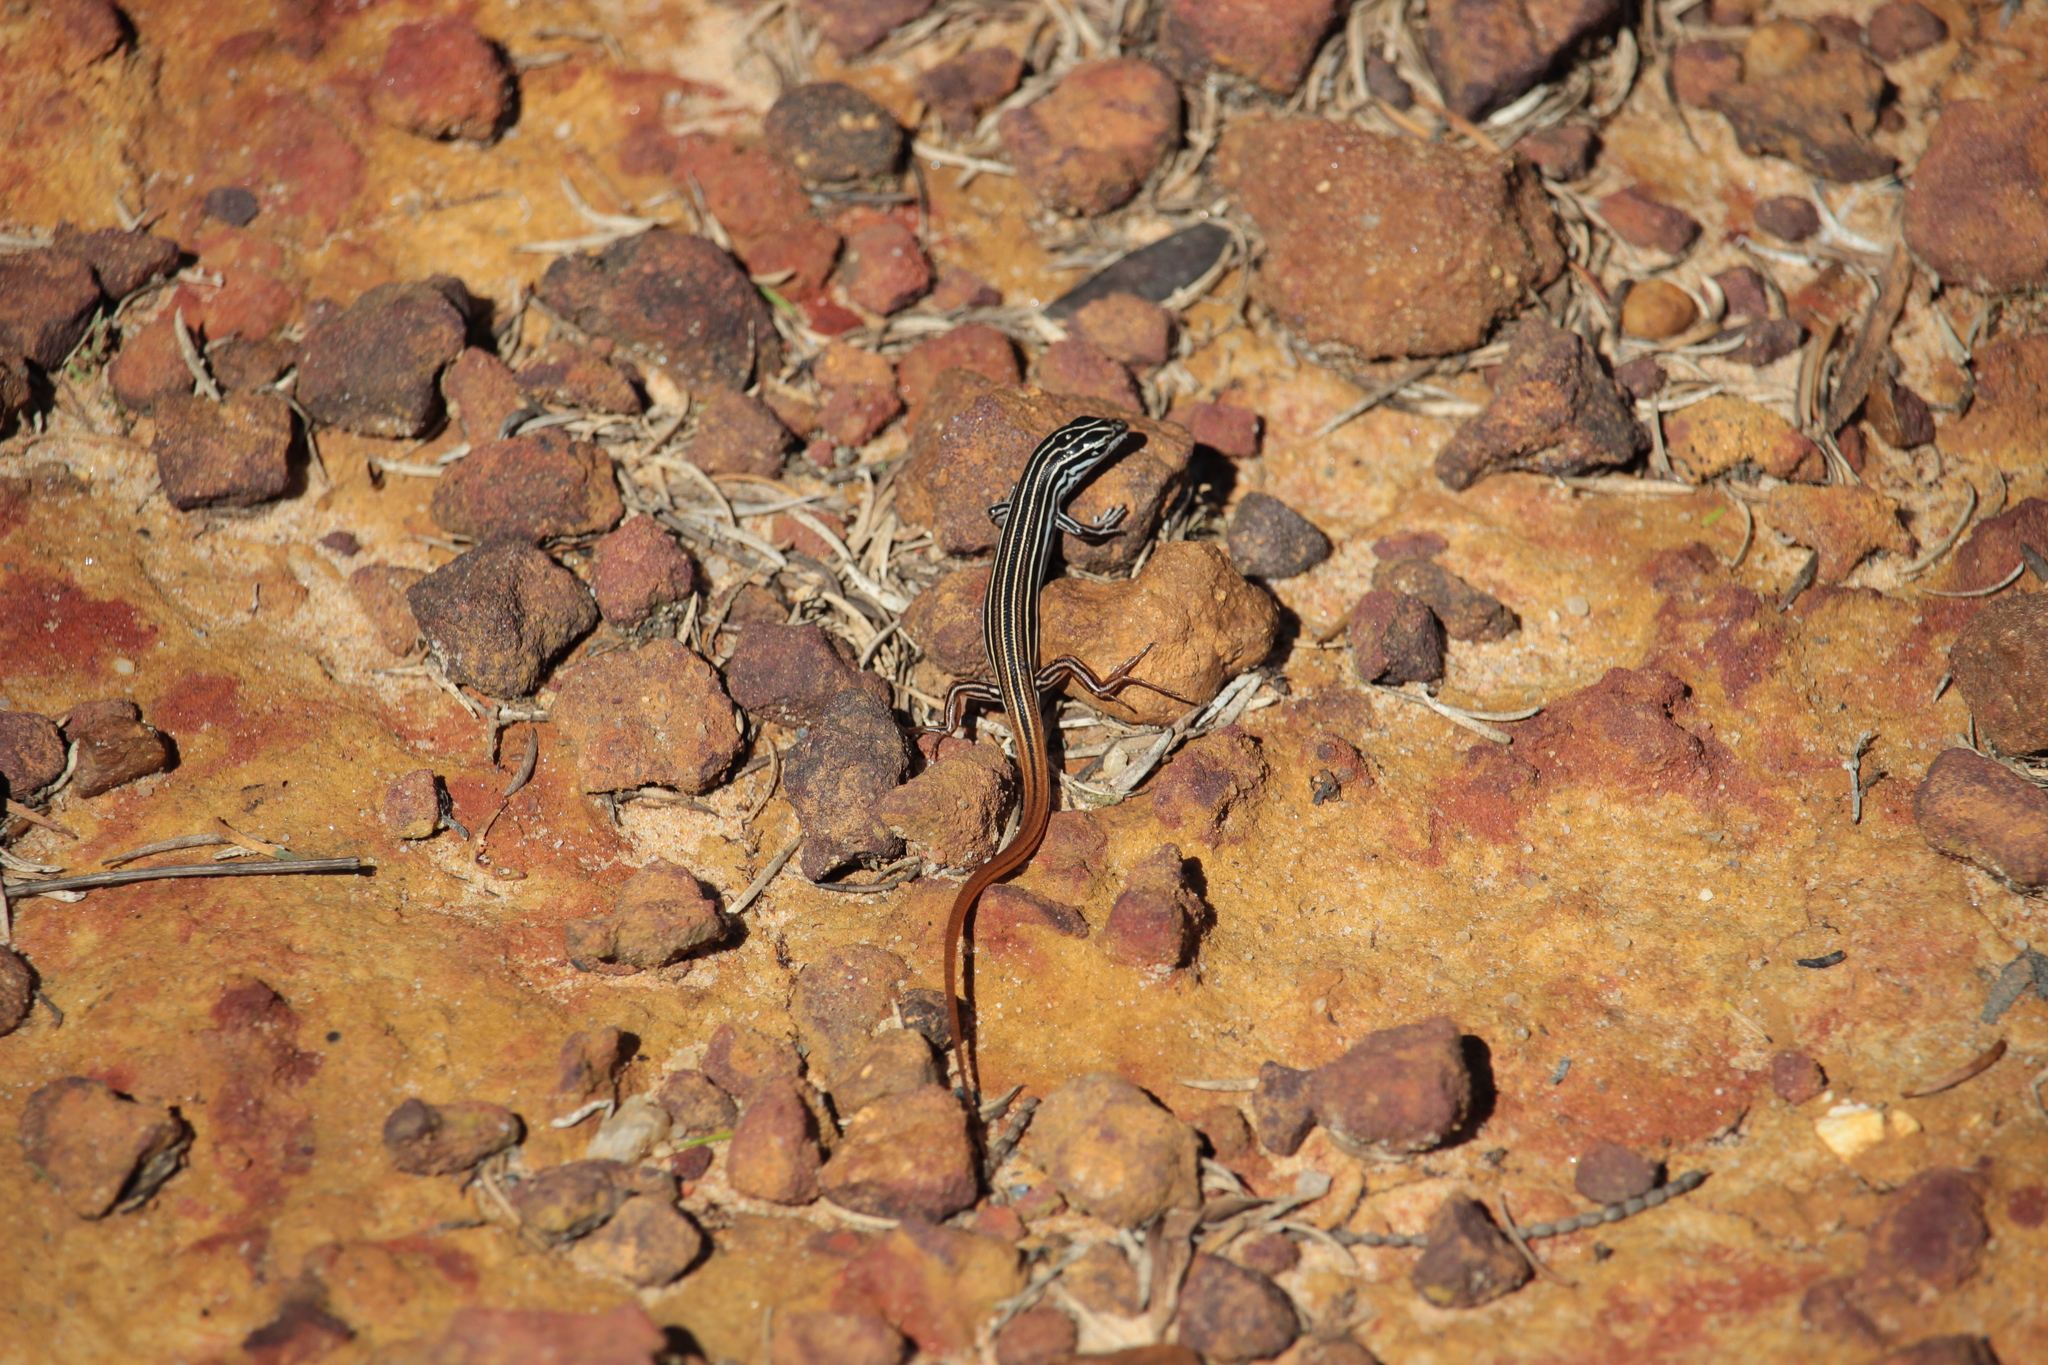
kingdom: Animalia
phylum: Chordata
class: Squamata
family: Scincidae
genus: Ctenotus
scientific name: Ctenotus taeniolatus
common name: Copper-tailed skink
